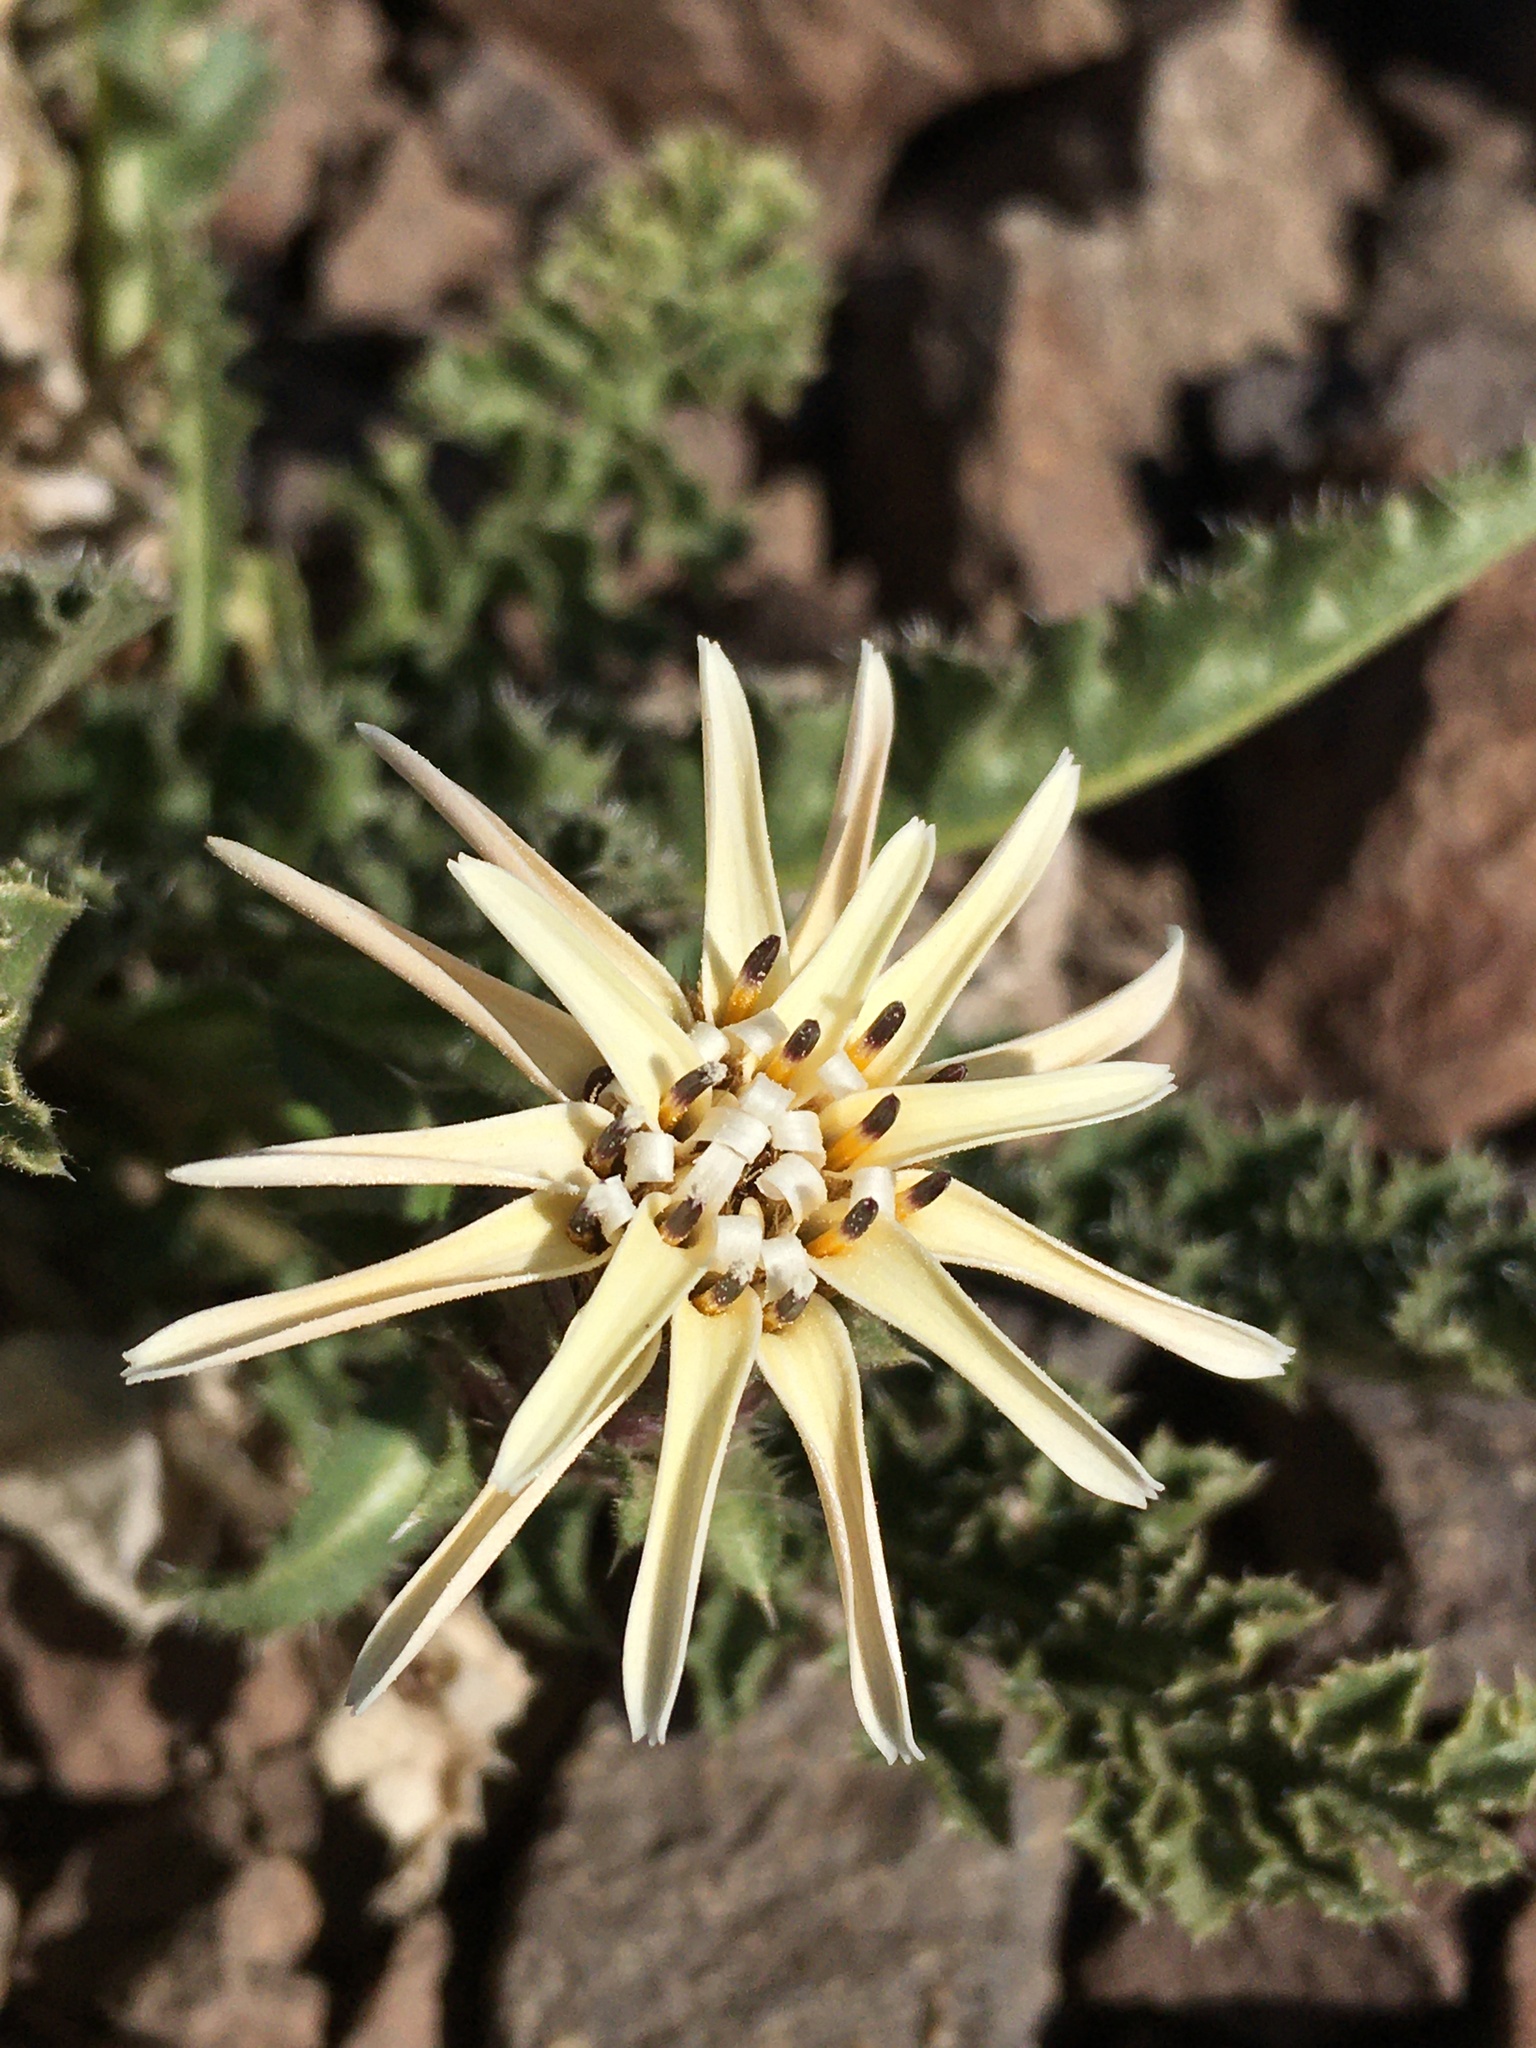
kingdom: Plantae
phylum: Tracheophyta
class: Magnoliopsida
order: Asterales
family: Asteraceae
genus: Perezia
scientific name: Perezia carthamoides
